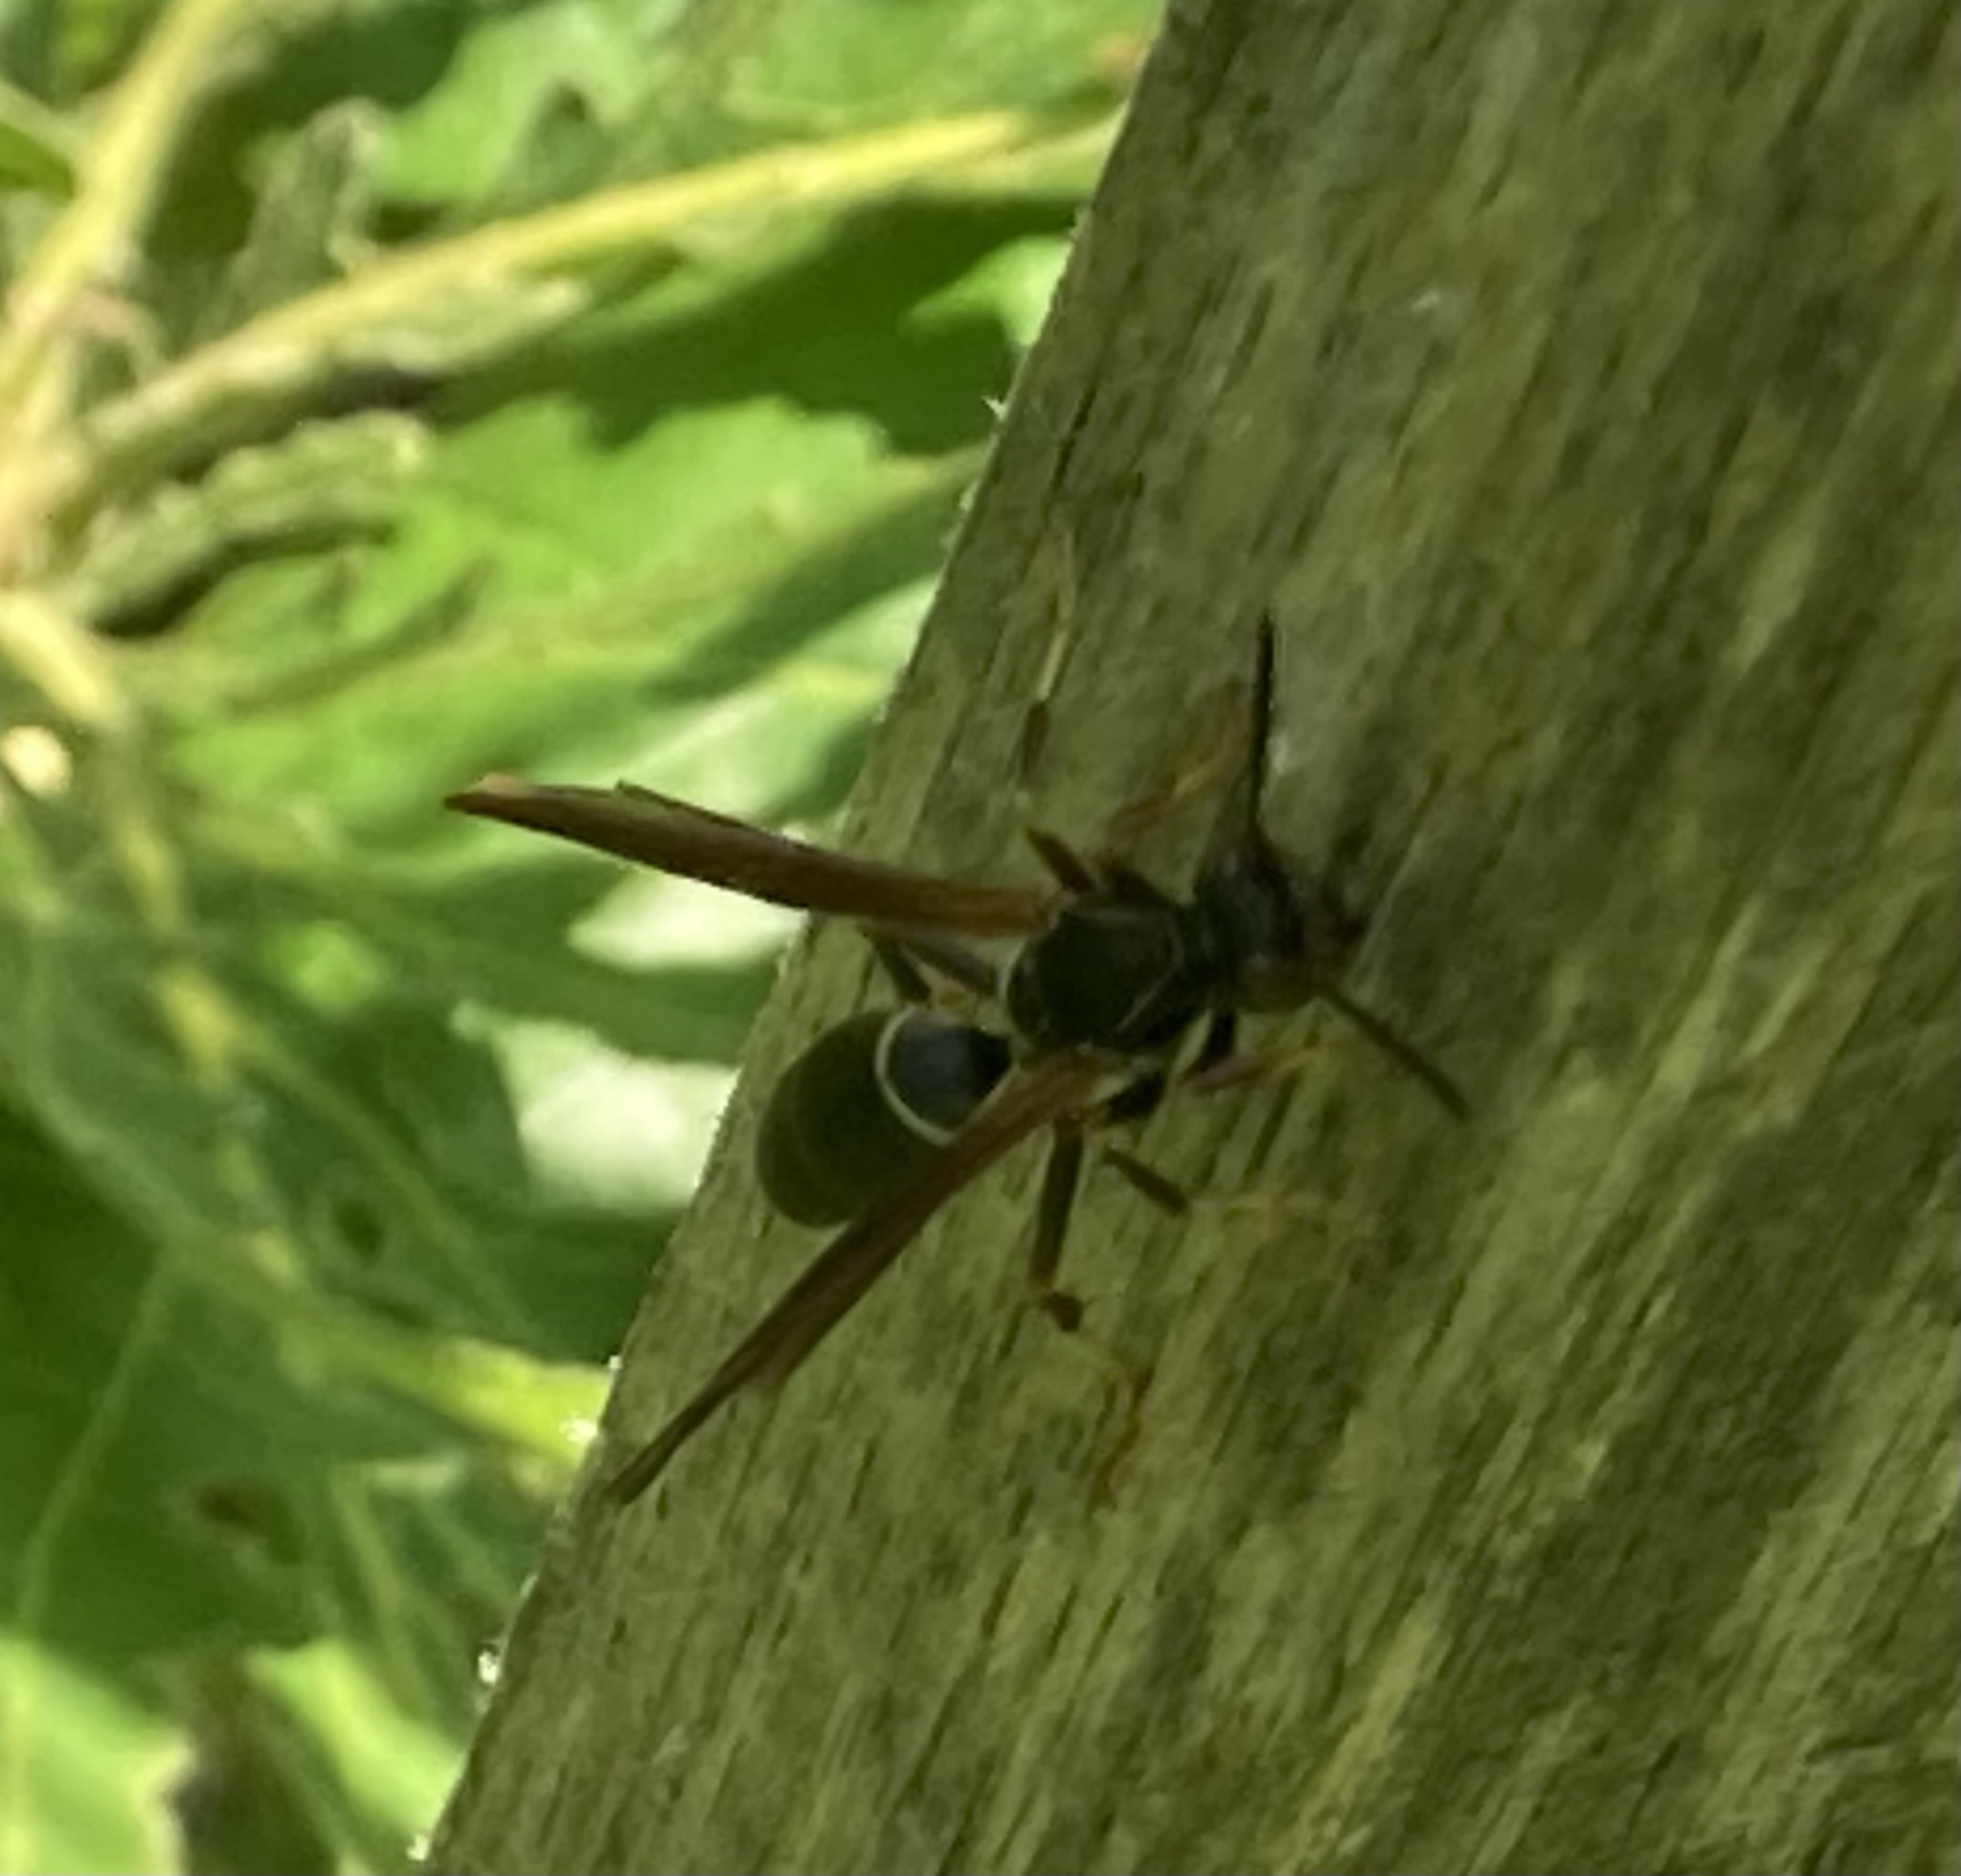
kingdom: Animalia
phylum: Arthropoda
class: Insecta
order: Hymenoptera
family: Eumenidae
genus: Polistes
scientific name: Polistes fuscatus
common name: Dark paper wasp
